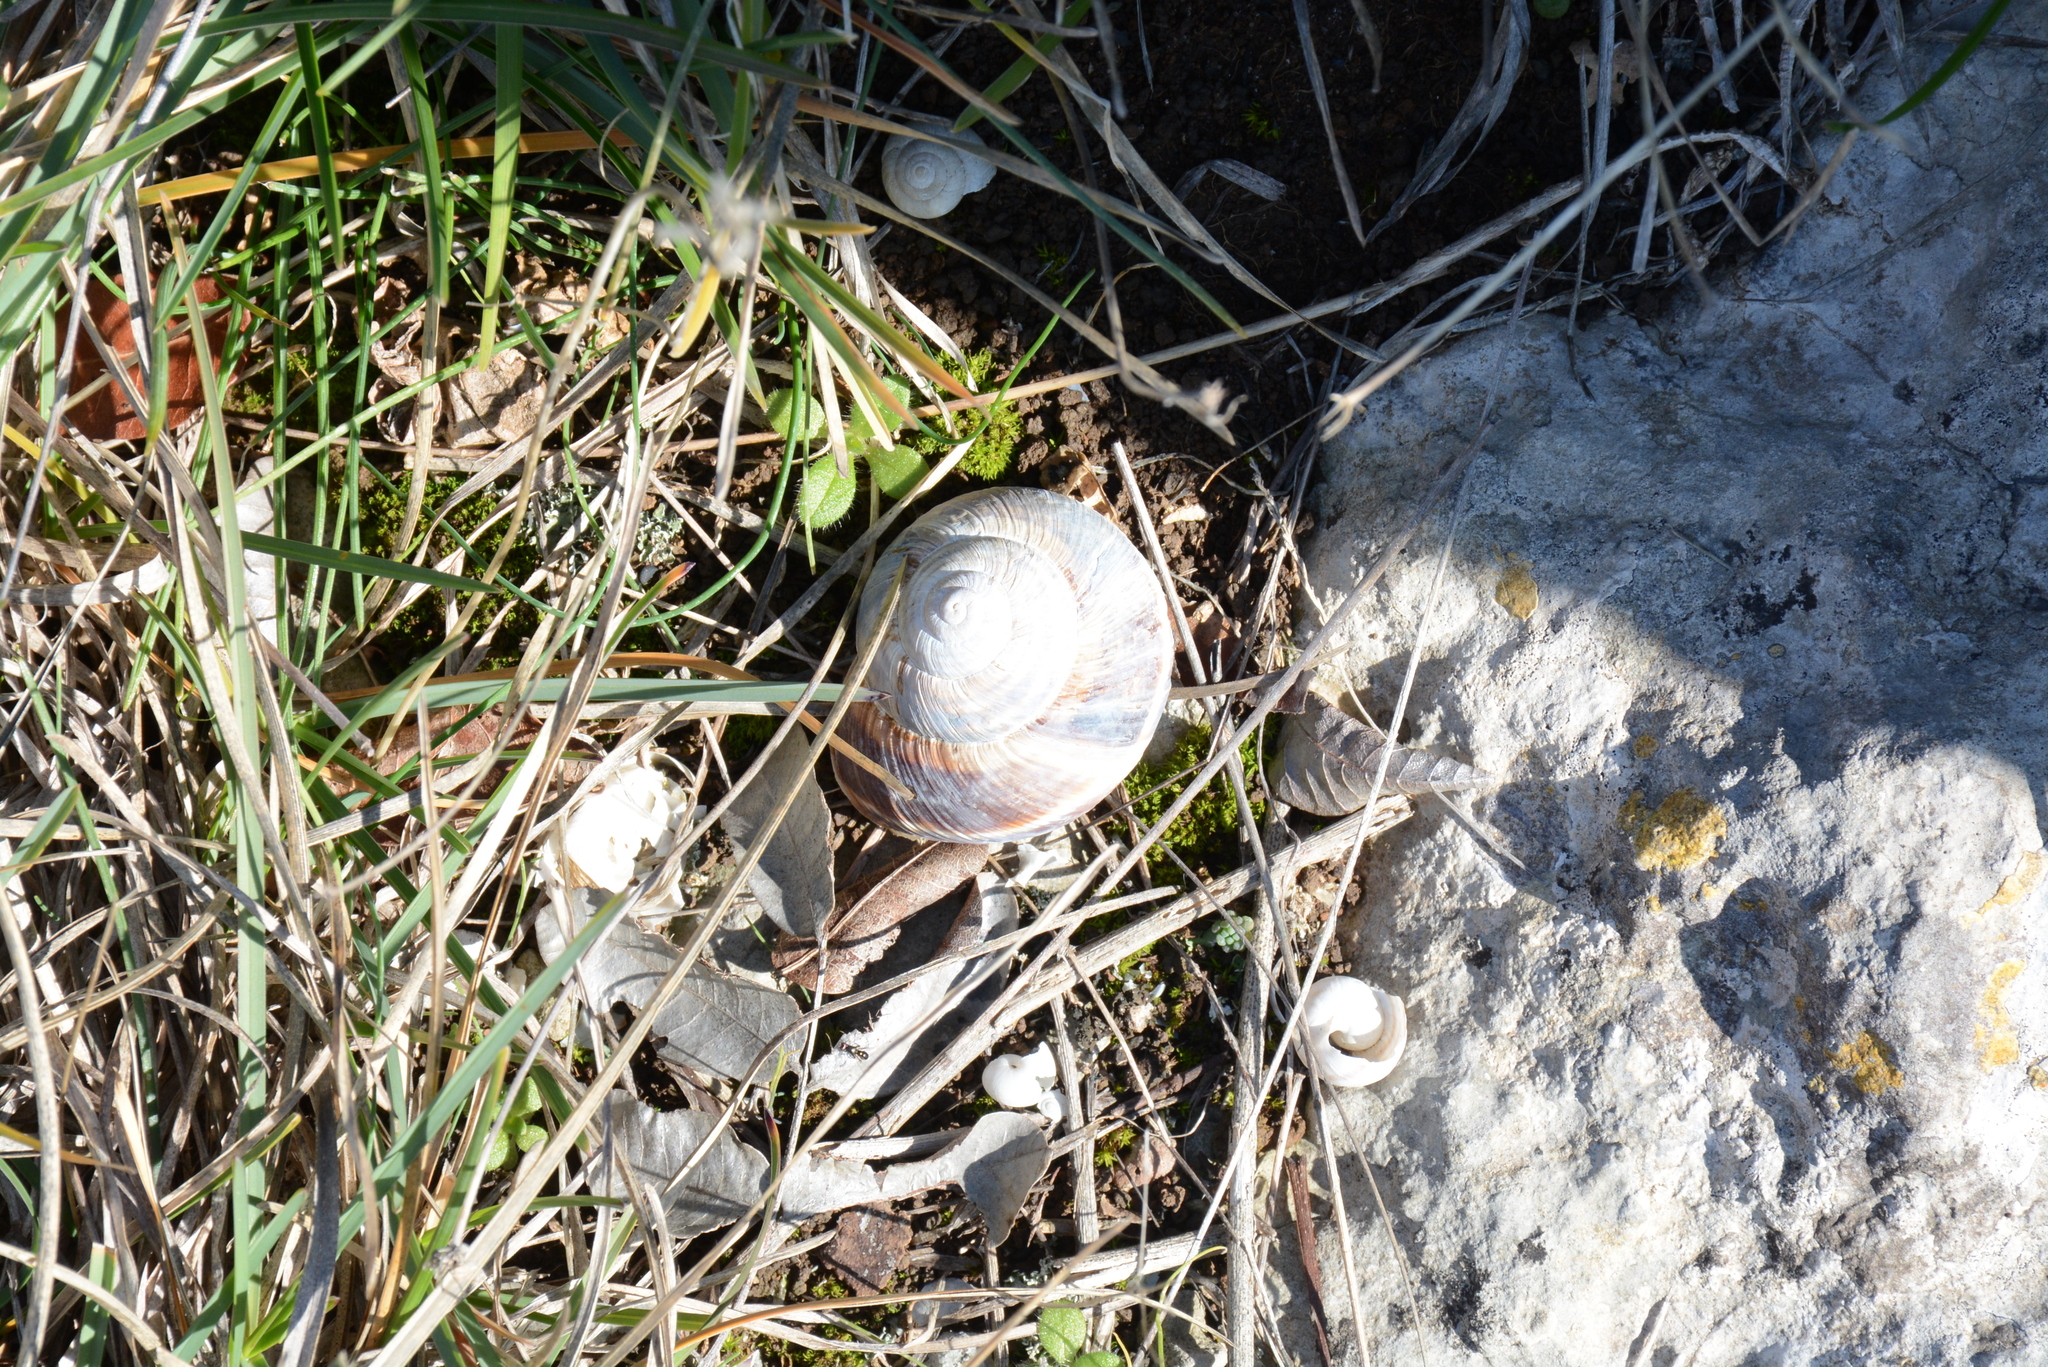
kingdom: Animalia
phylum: Mollusca
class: Gastropoda
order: Stylommatophora
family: Helicidae
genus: Helix
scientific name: Helix lucorum
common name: Turkish snail
